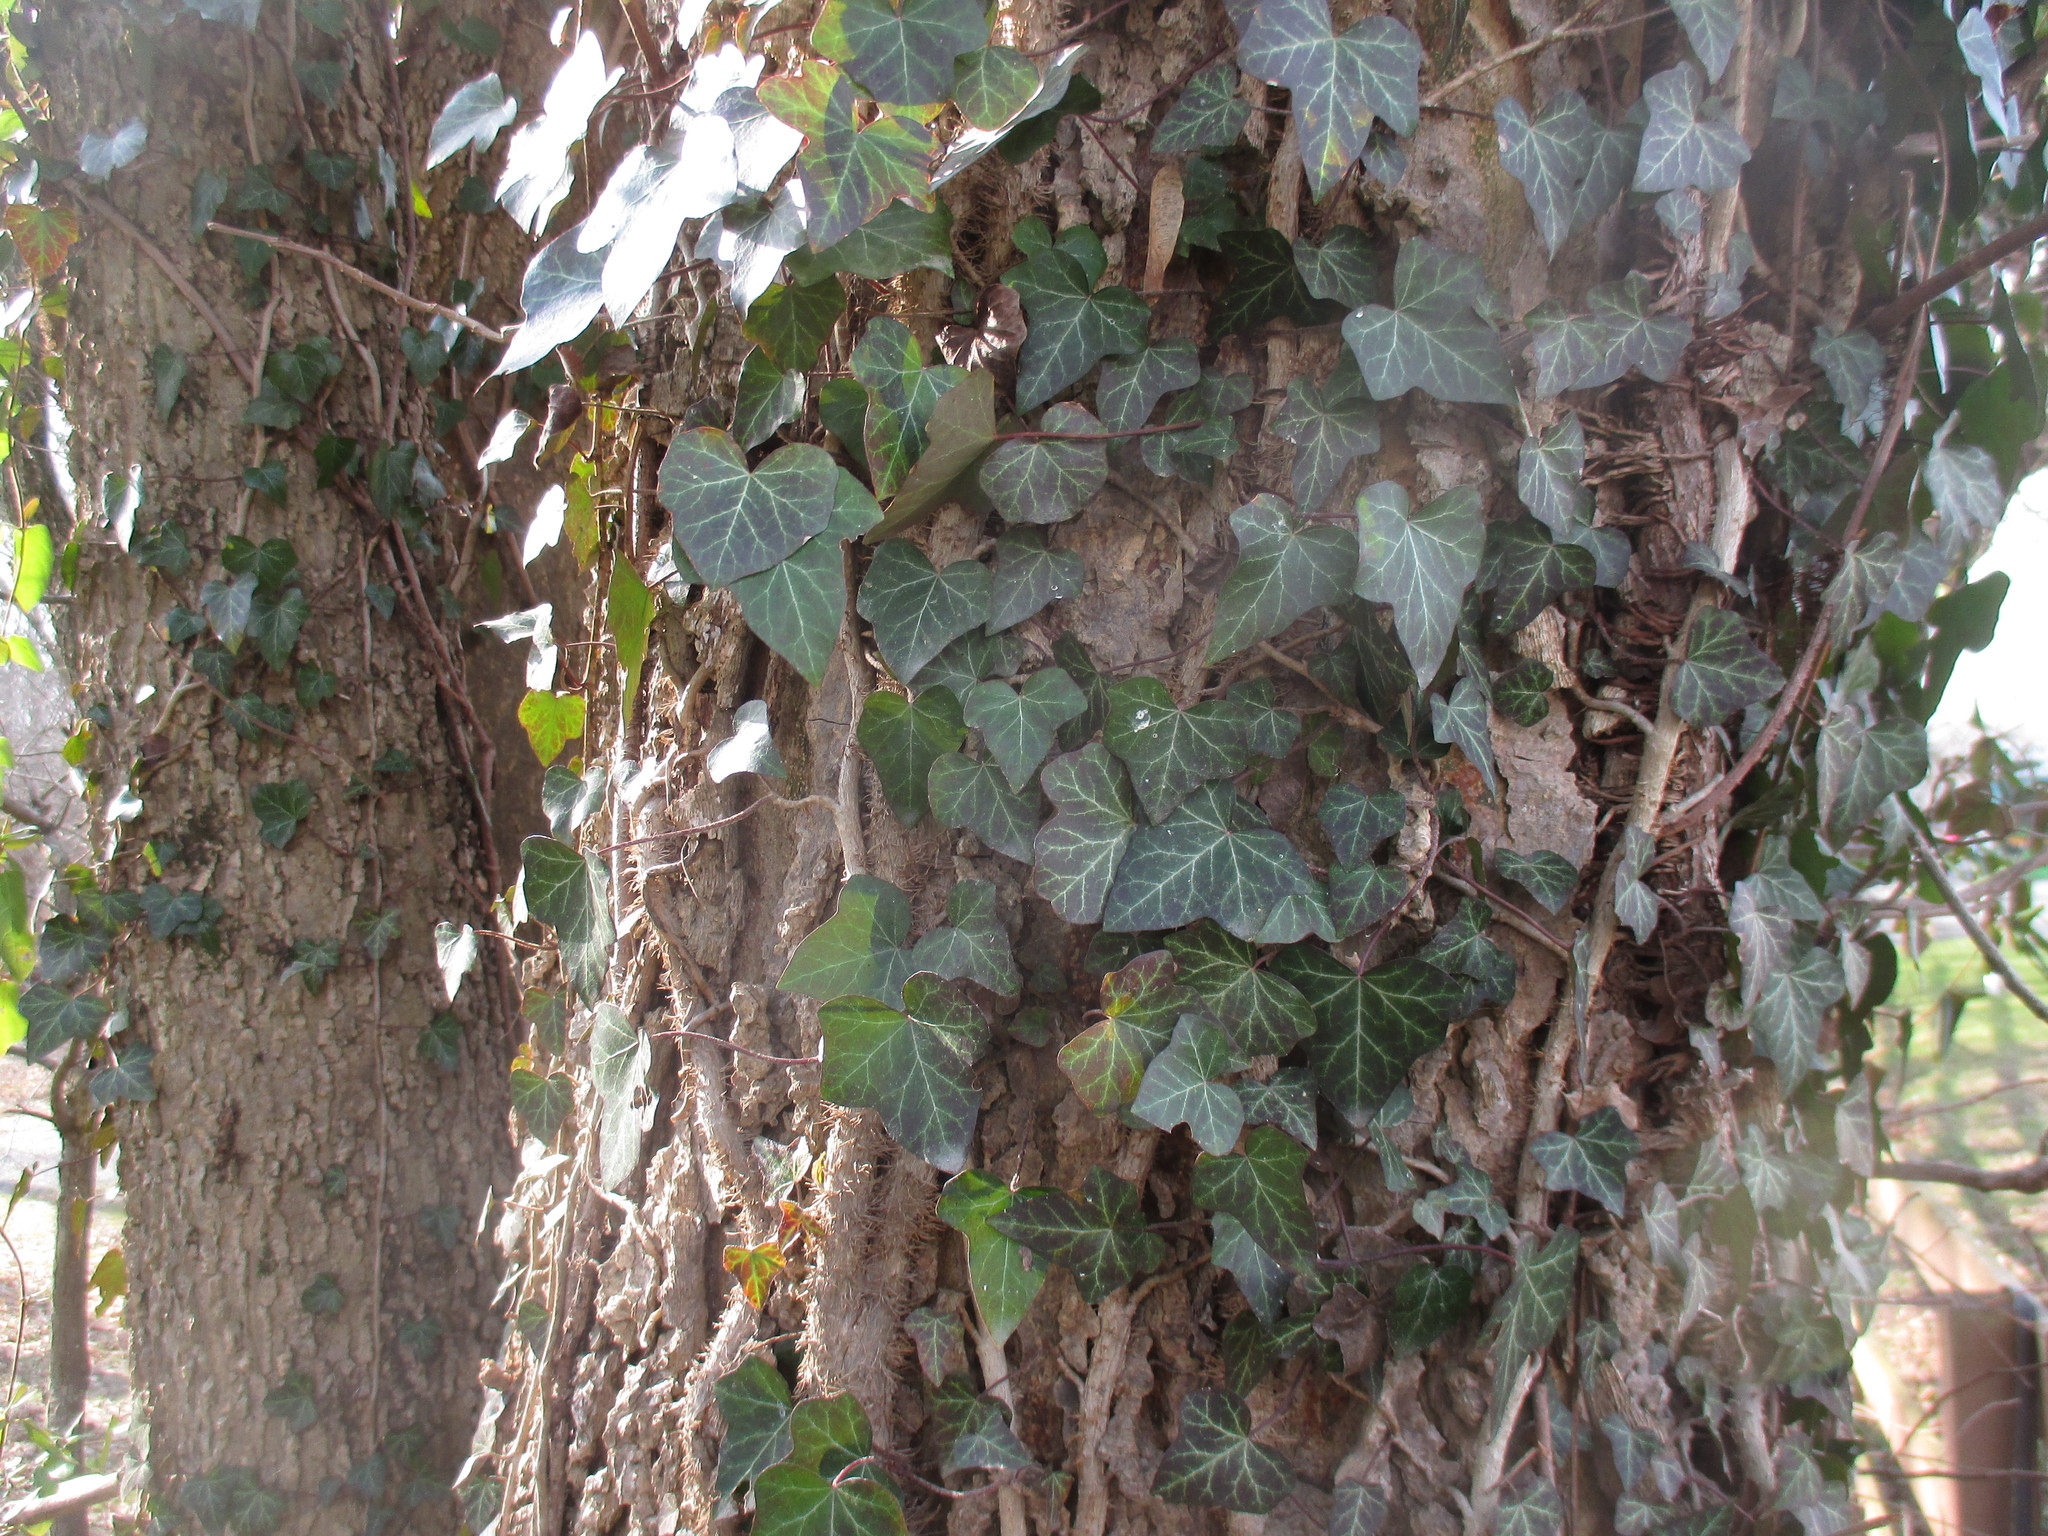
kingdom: Plantae
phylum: Tracheophyta
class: Magnoliopsida
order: Apiales
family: Araliaceae
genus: Hedera
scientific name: Hedera helix
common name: Ivy
